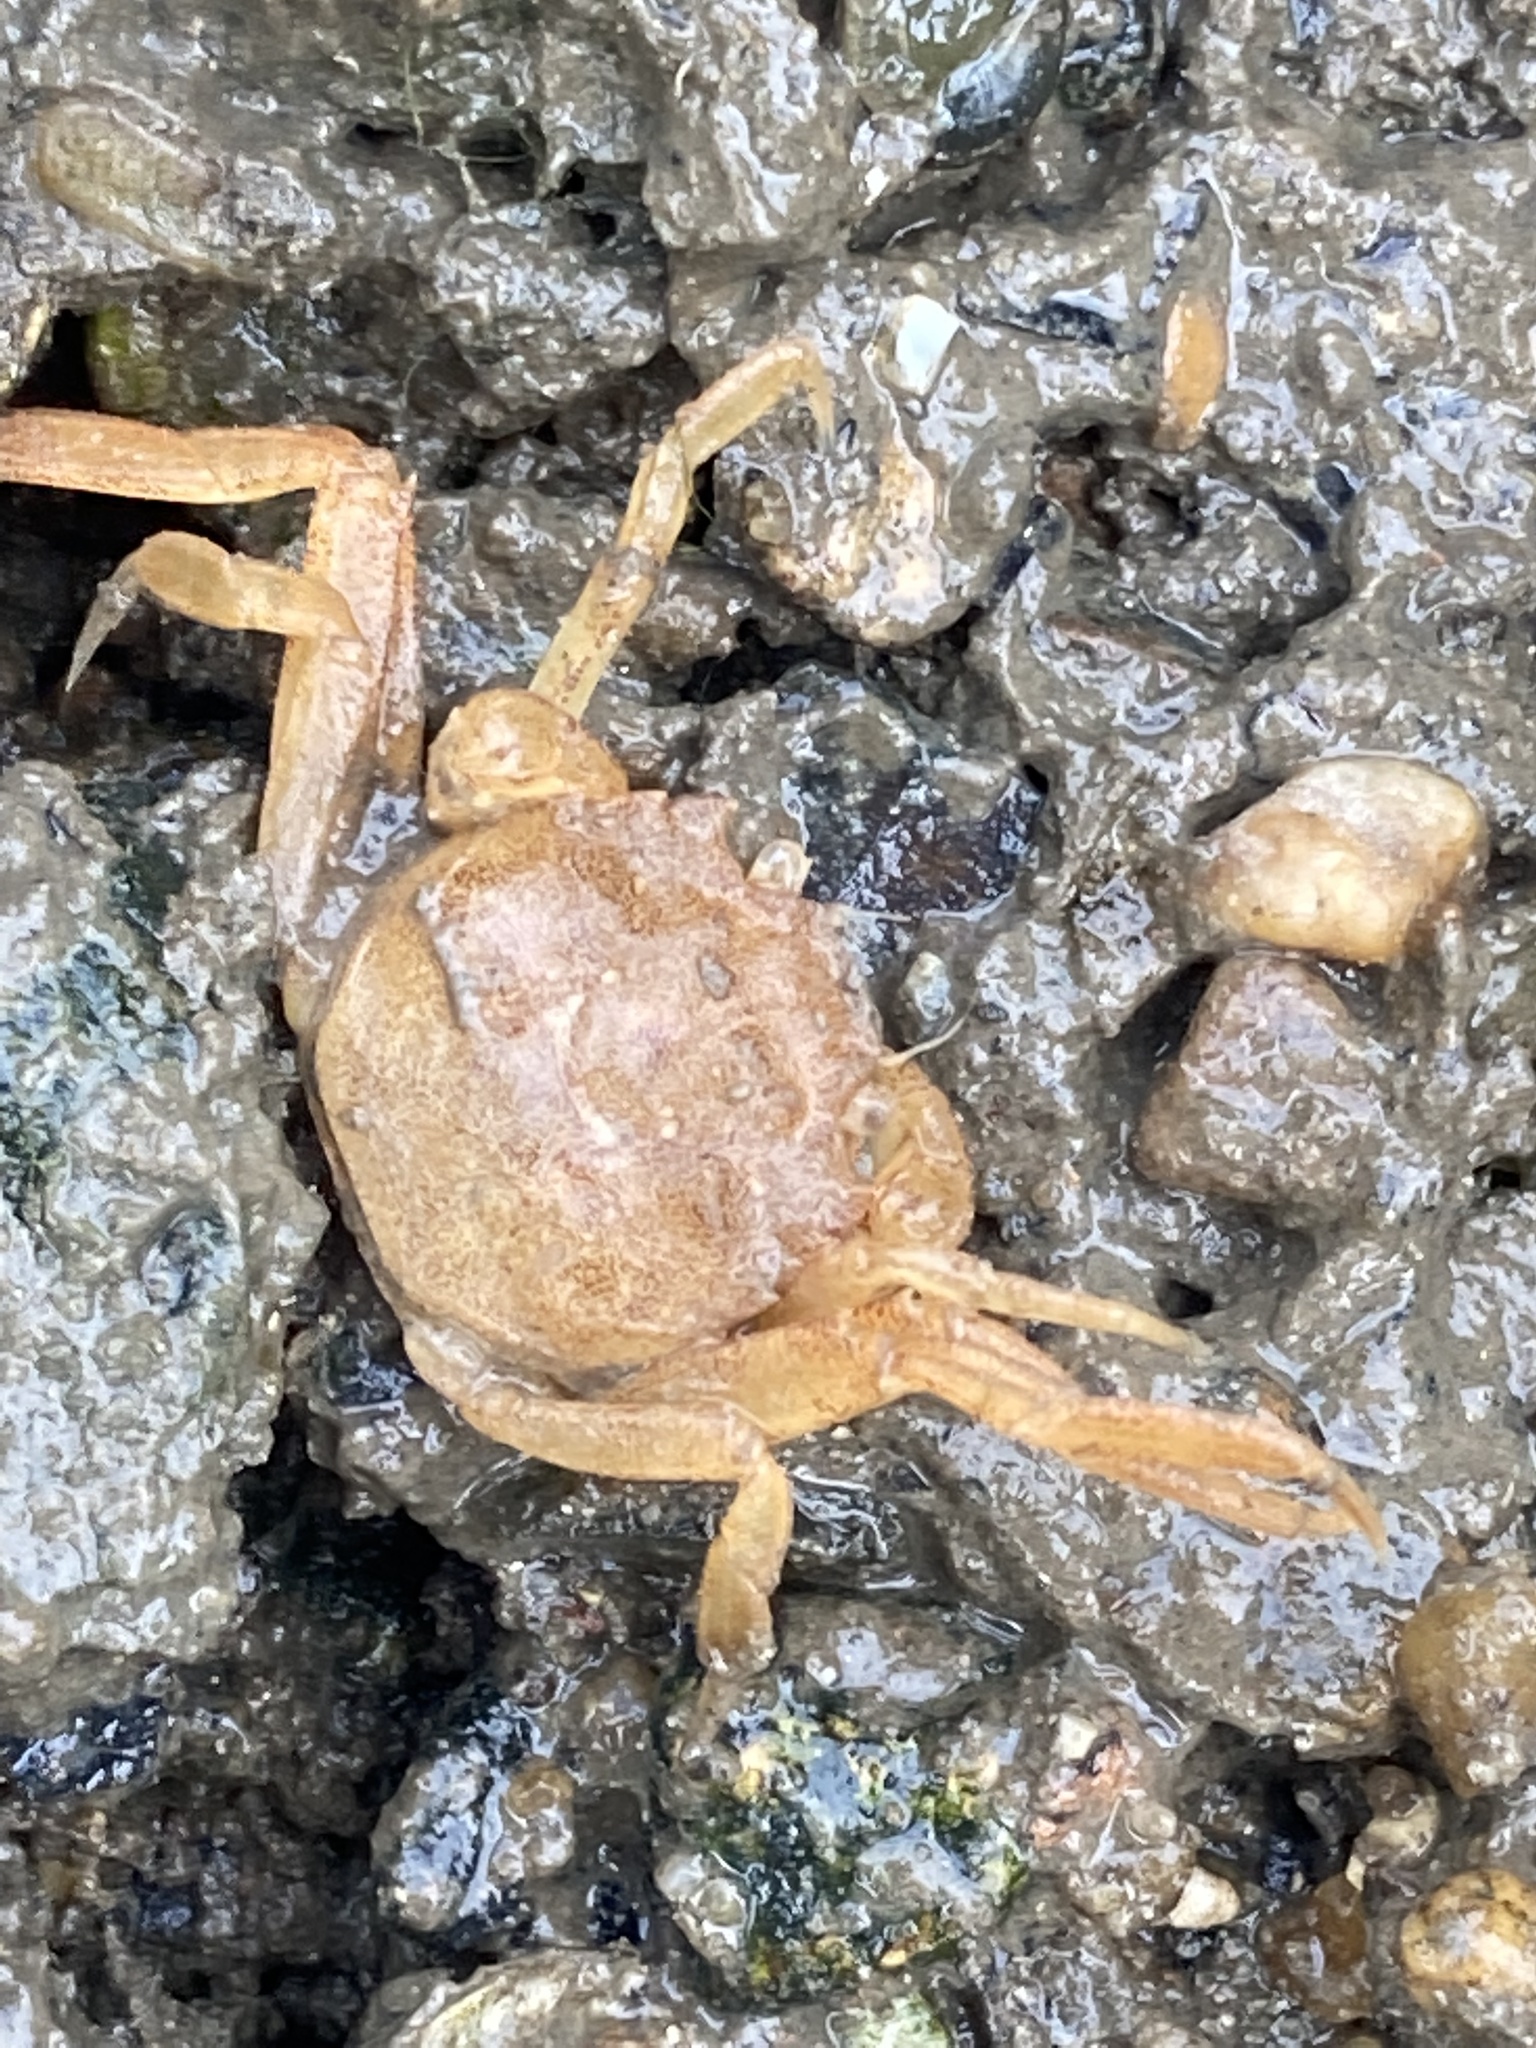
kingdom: Animalia
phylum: Arthropoda
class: Malacostraca
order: Decapoda
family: Varunidae
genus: Eriocheir
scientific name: Eriocheir sinensis
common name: Chinese mitten crab
